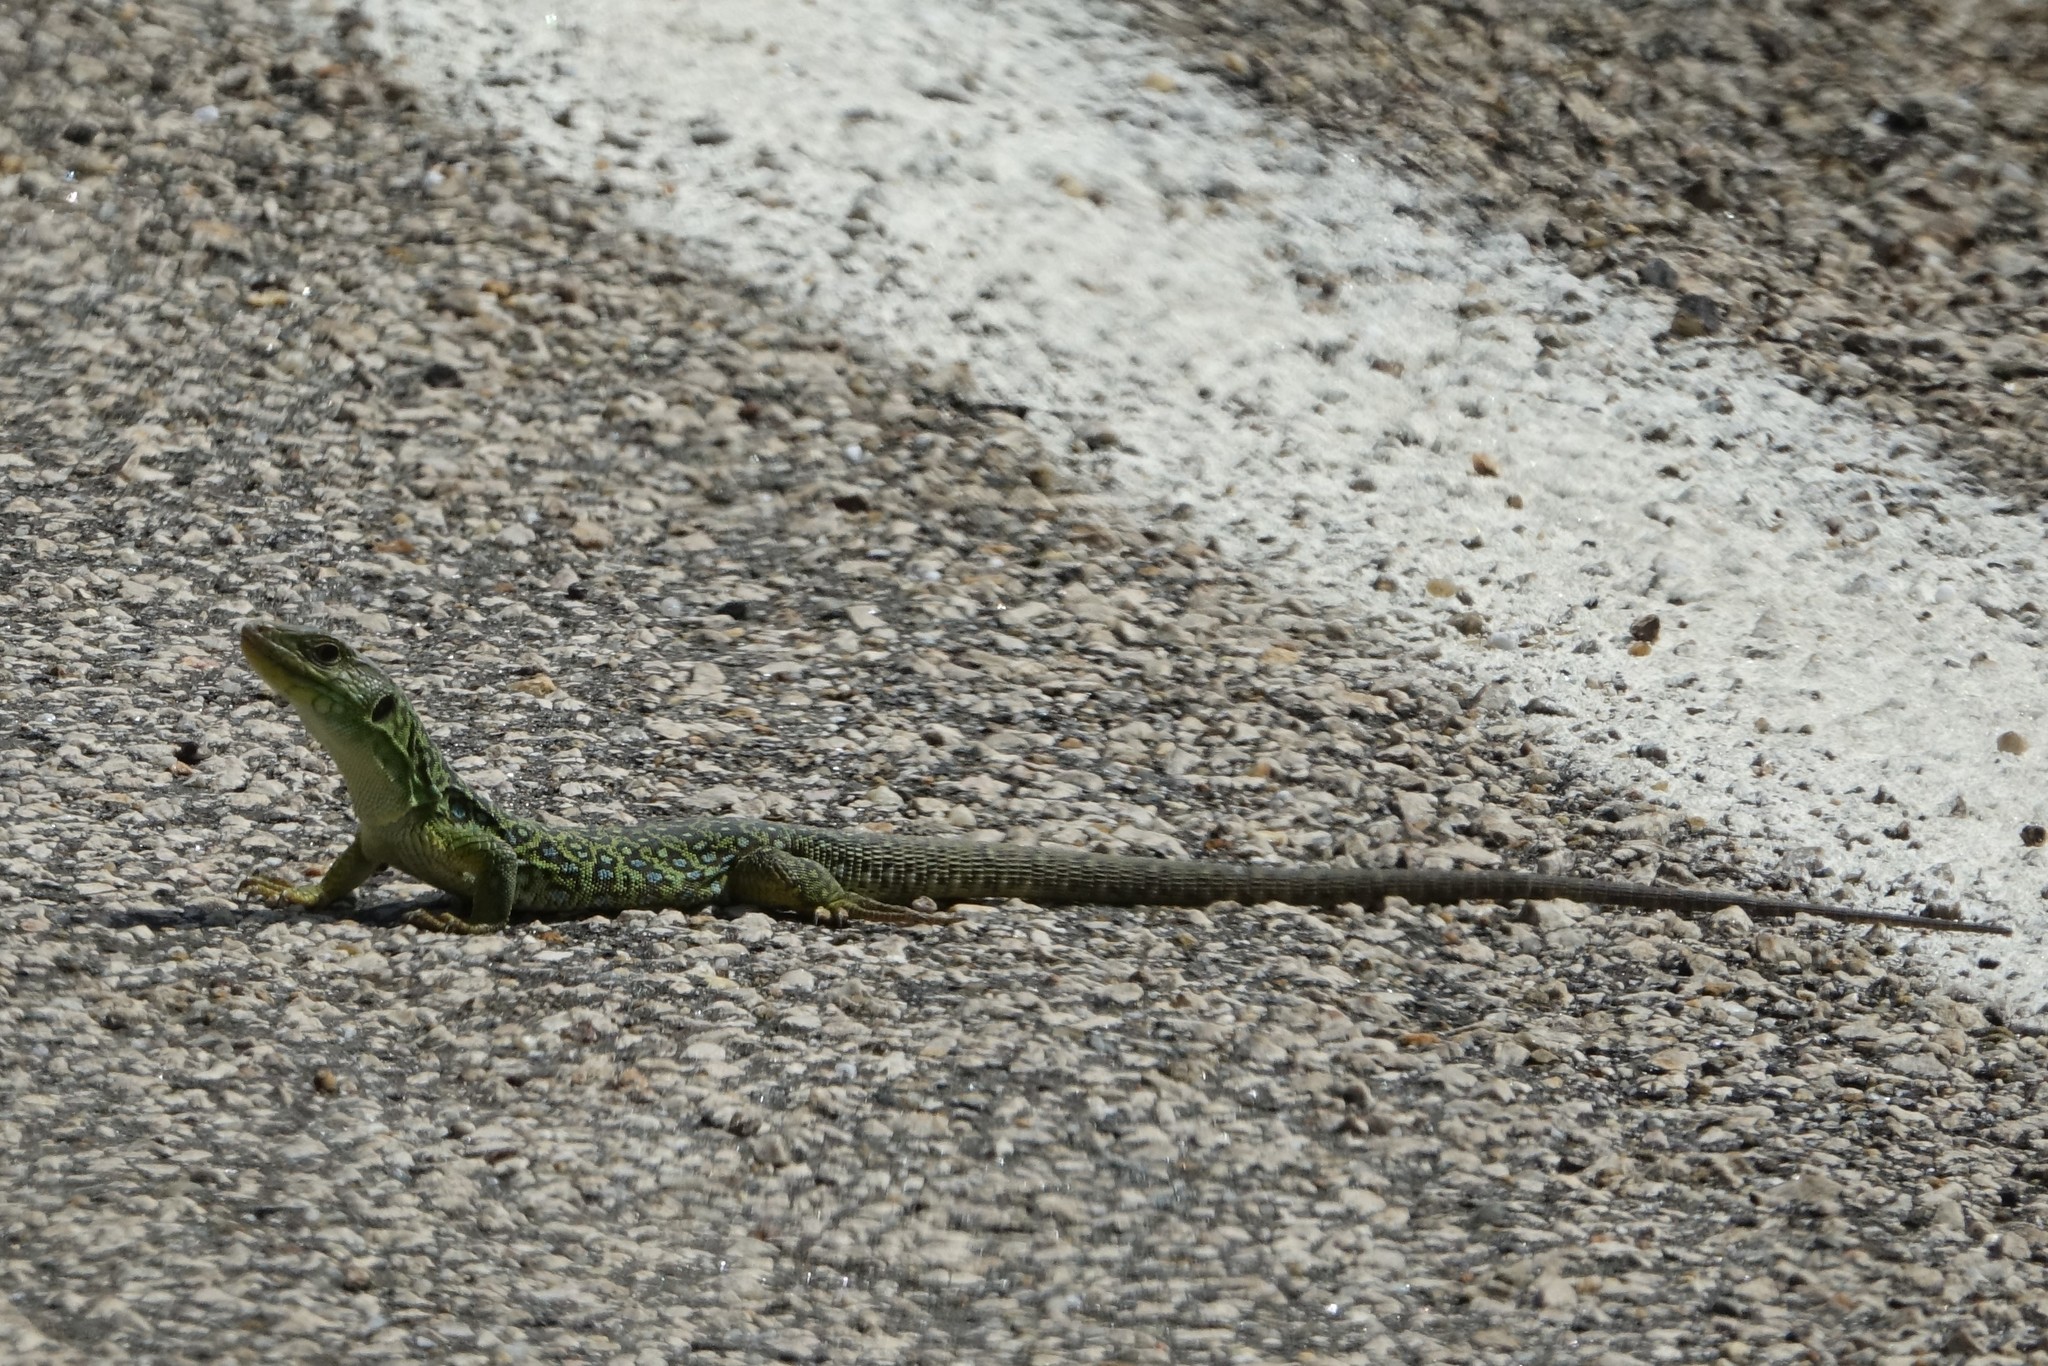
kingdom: Animalia
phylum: Chordata
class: Squamata
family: Lacertidae
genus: Timon
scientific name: Timon lepidus
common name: Ocellated lizard
